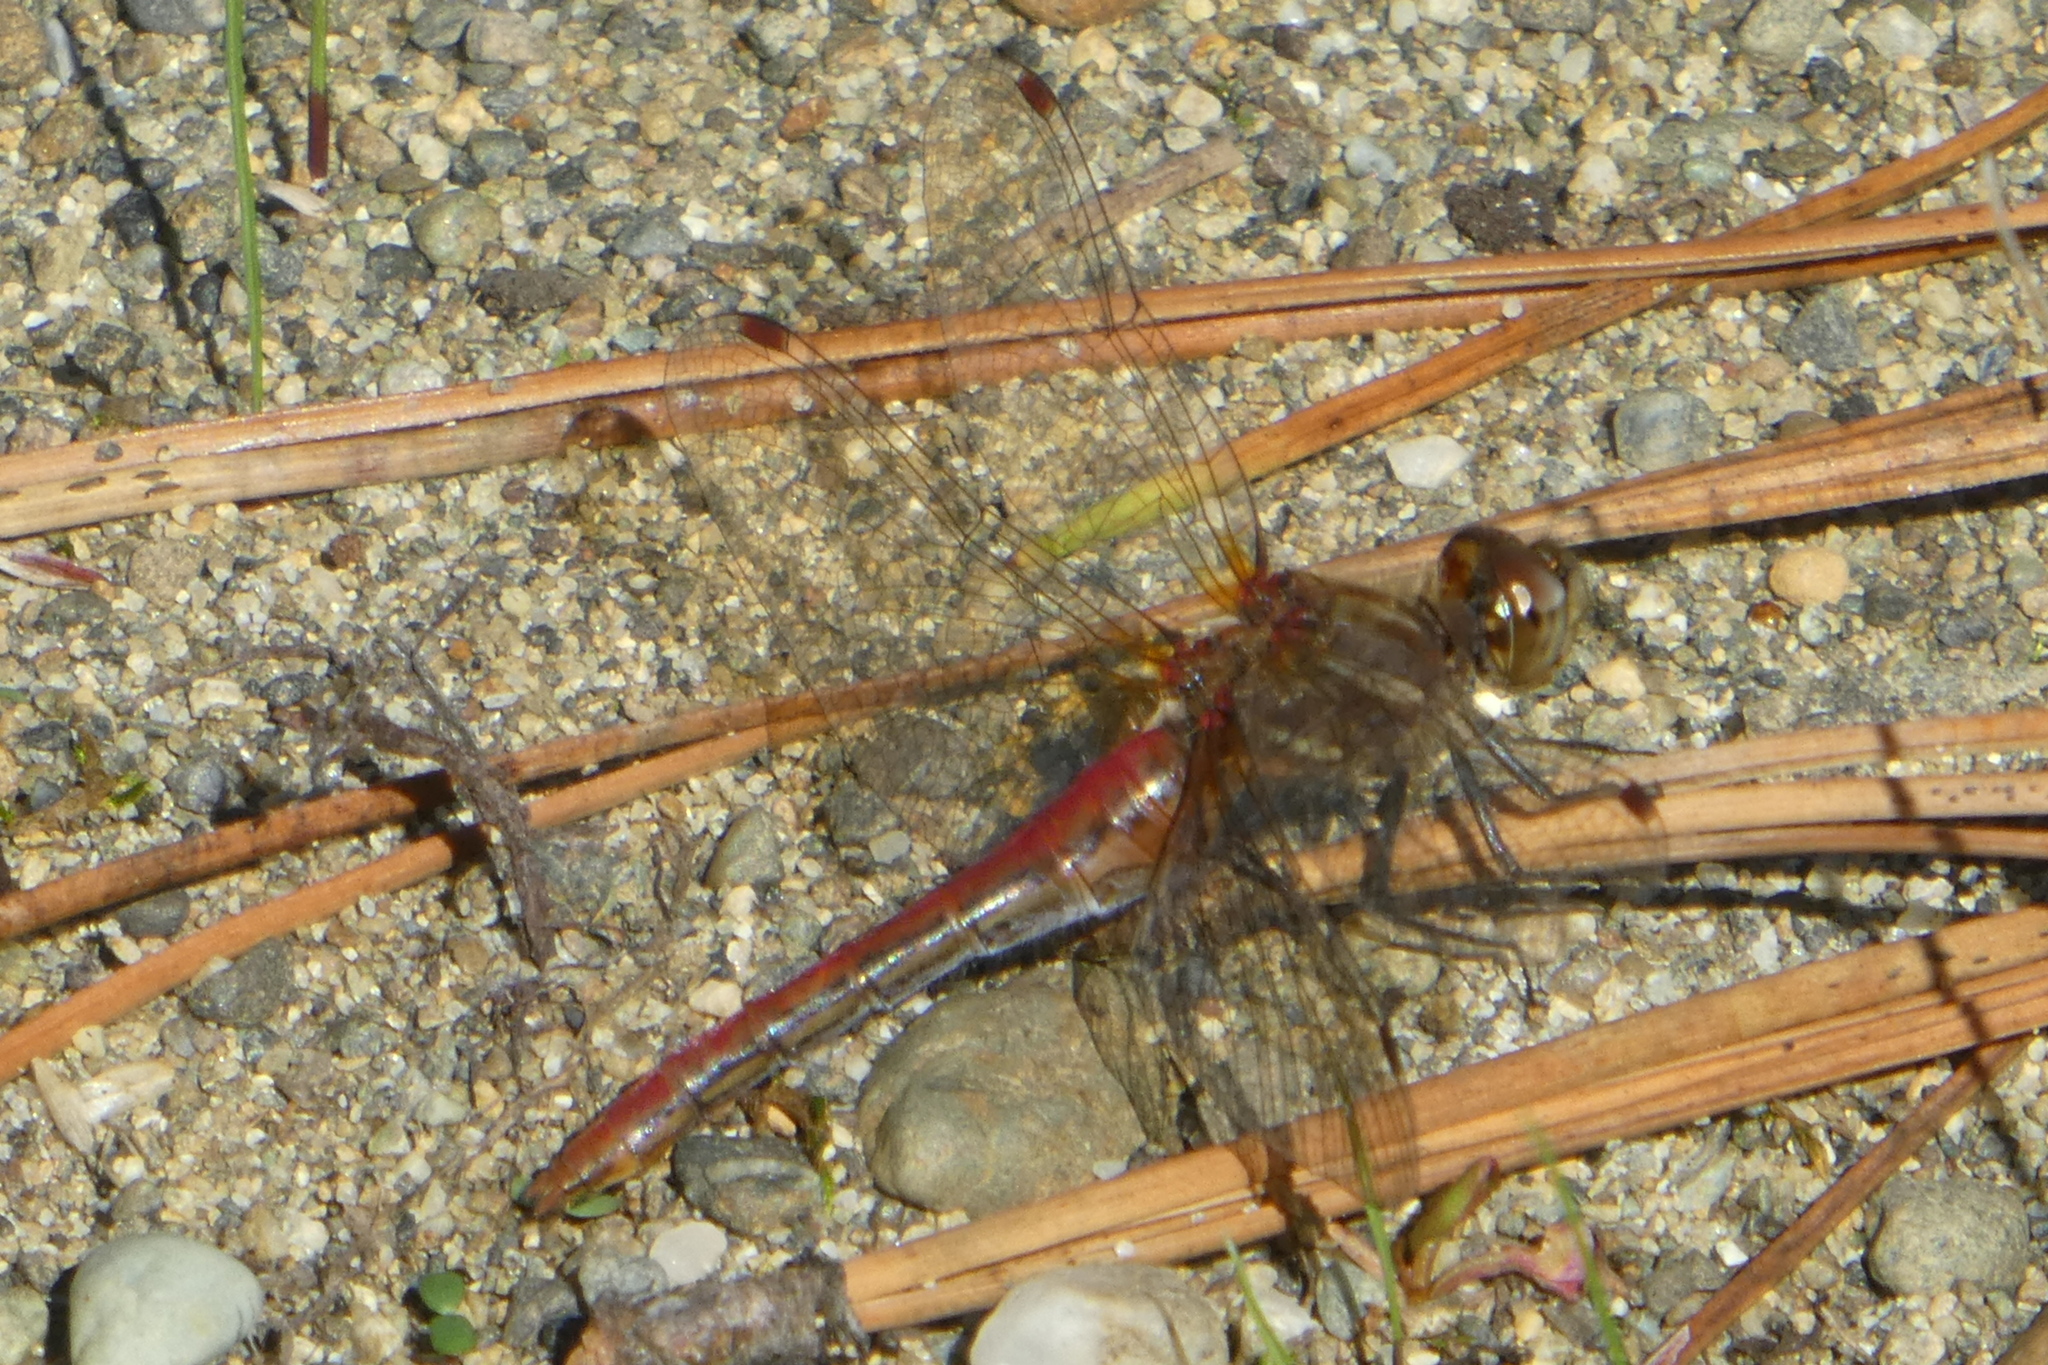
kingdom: Animalia
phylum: Arthropoda
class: Insecta
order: Odonata
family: Libellulidae
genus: Sympetrum
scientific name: Sympetrum pallipes
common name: Striped meadowhawk
